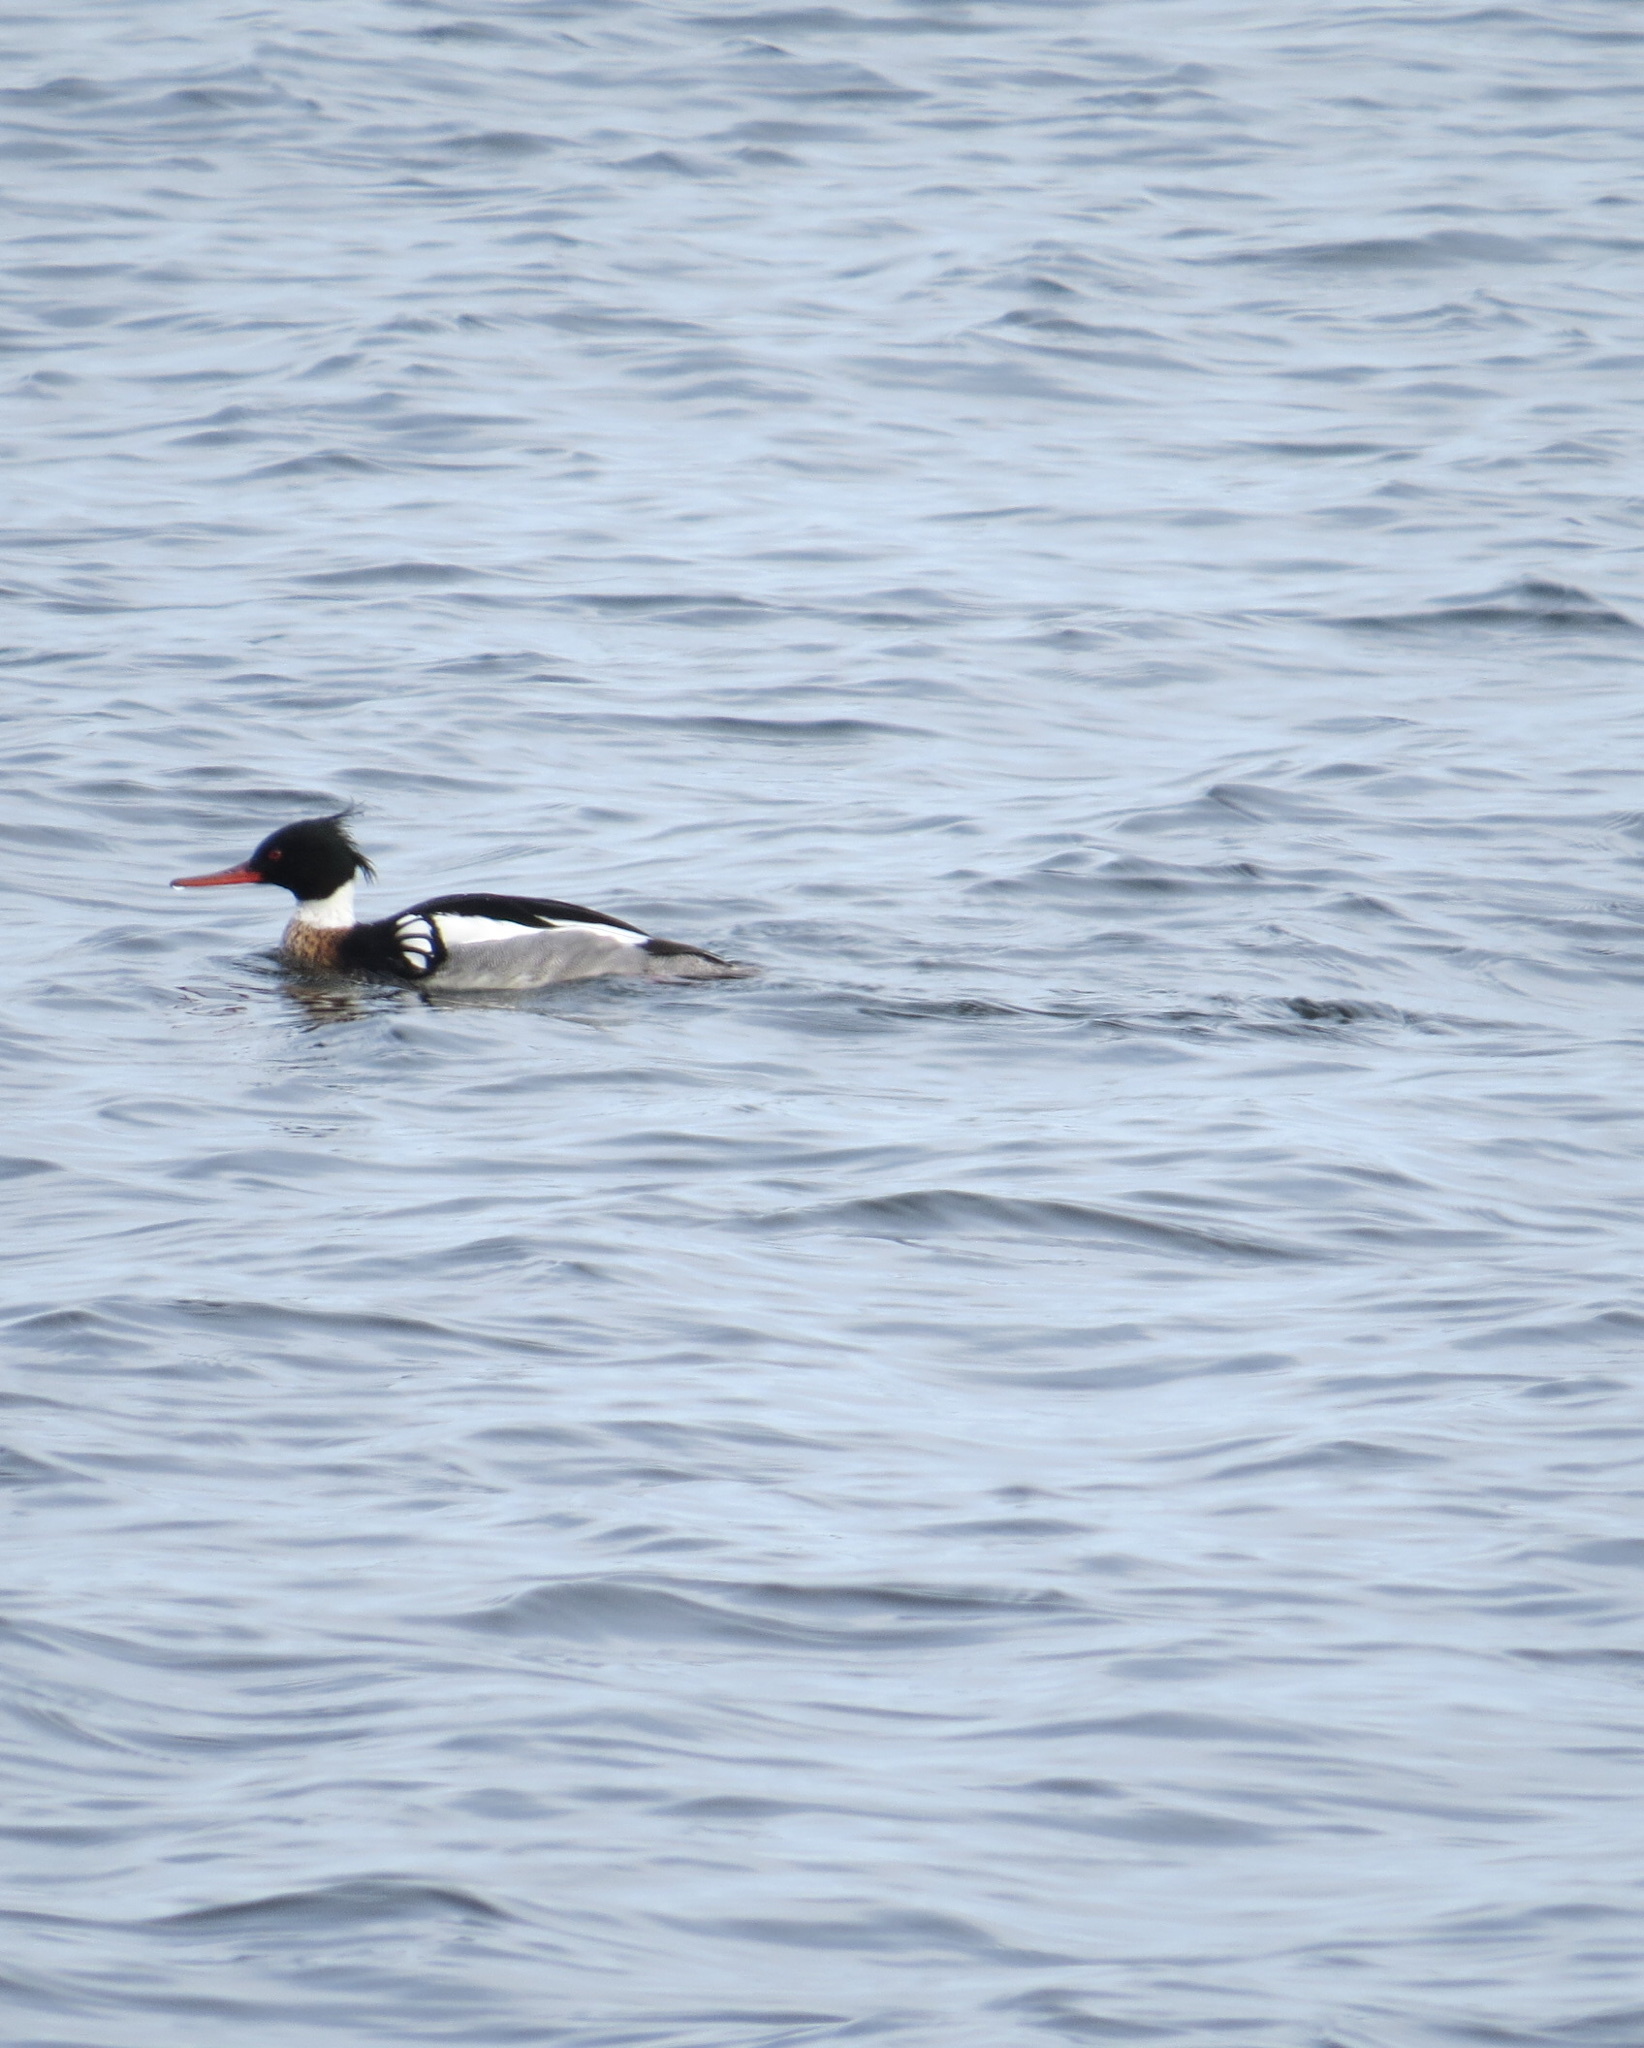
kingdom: Animalia
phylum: Chordata
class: Aves
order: Anseriformes
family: Anatidae
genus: Mergus
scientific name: Mergus serrator
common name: Red-breasted merganser
